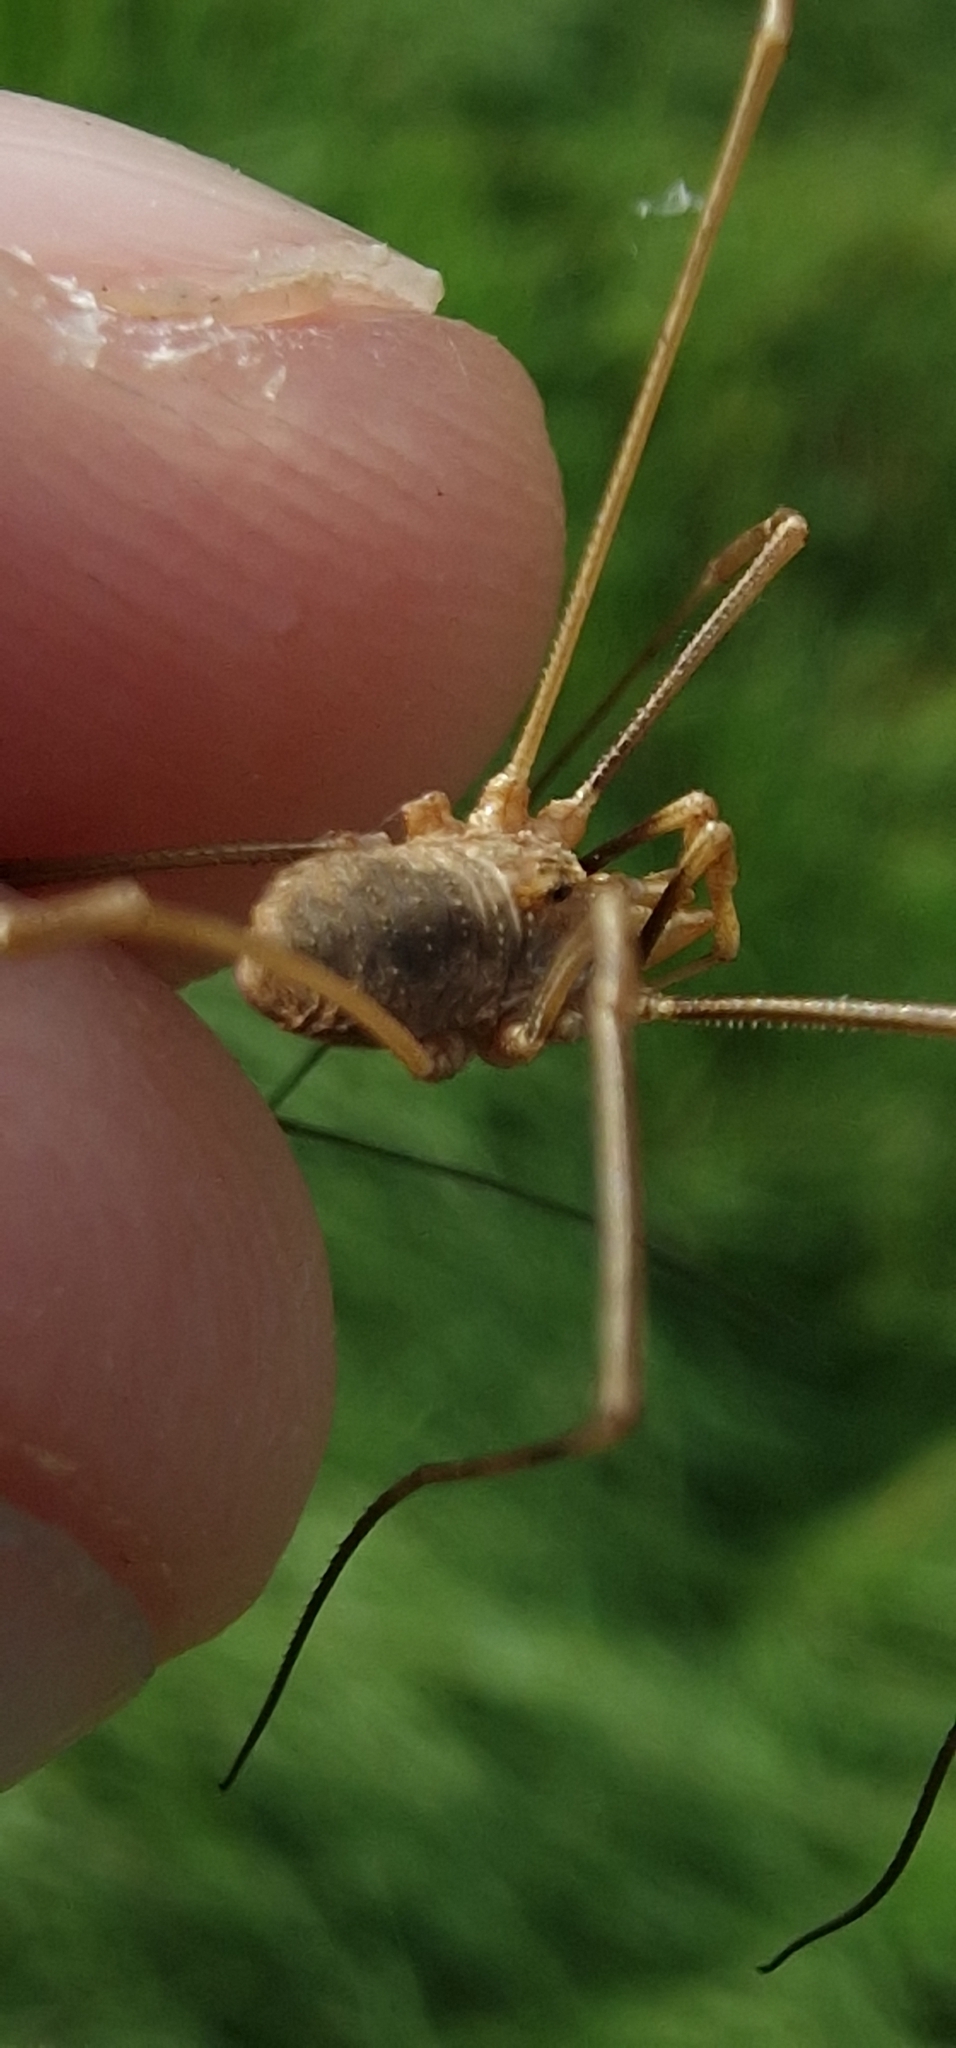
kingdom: Animalia
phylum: Arthropoda
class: Arachnida
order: Opiliones
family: Phalangiidae
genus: Phalangium
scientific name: Phalangium opilio
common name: Daddy longleg
